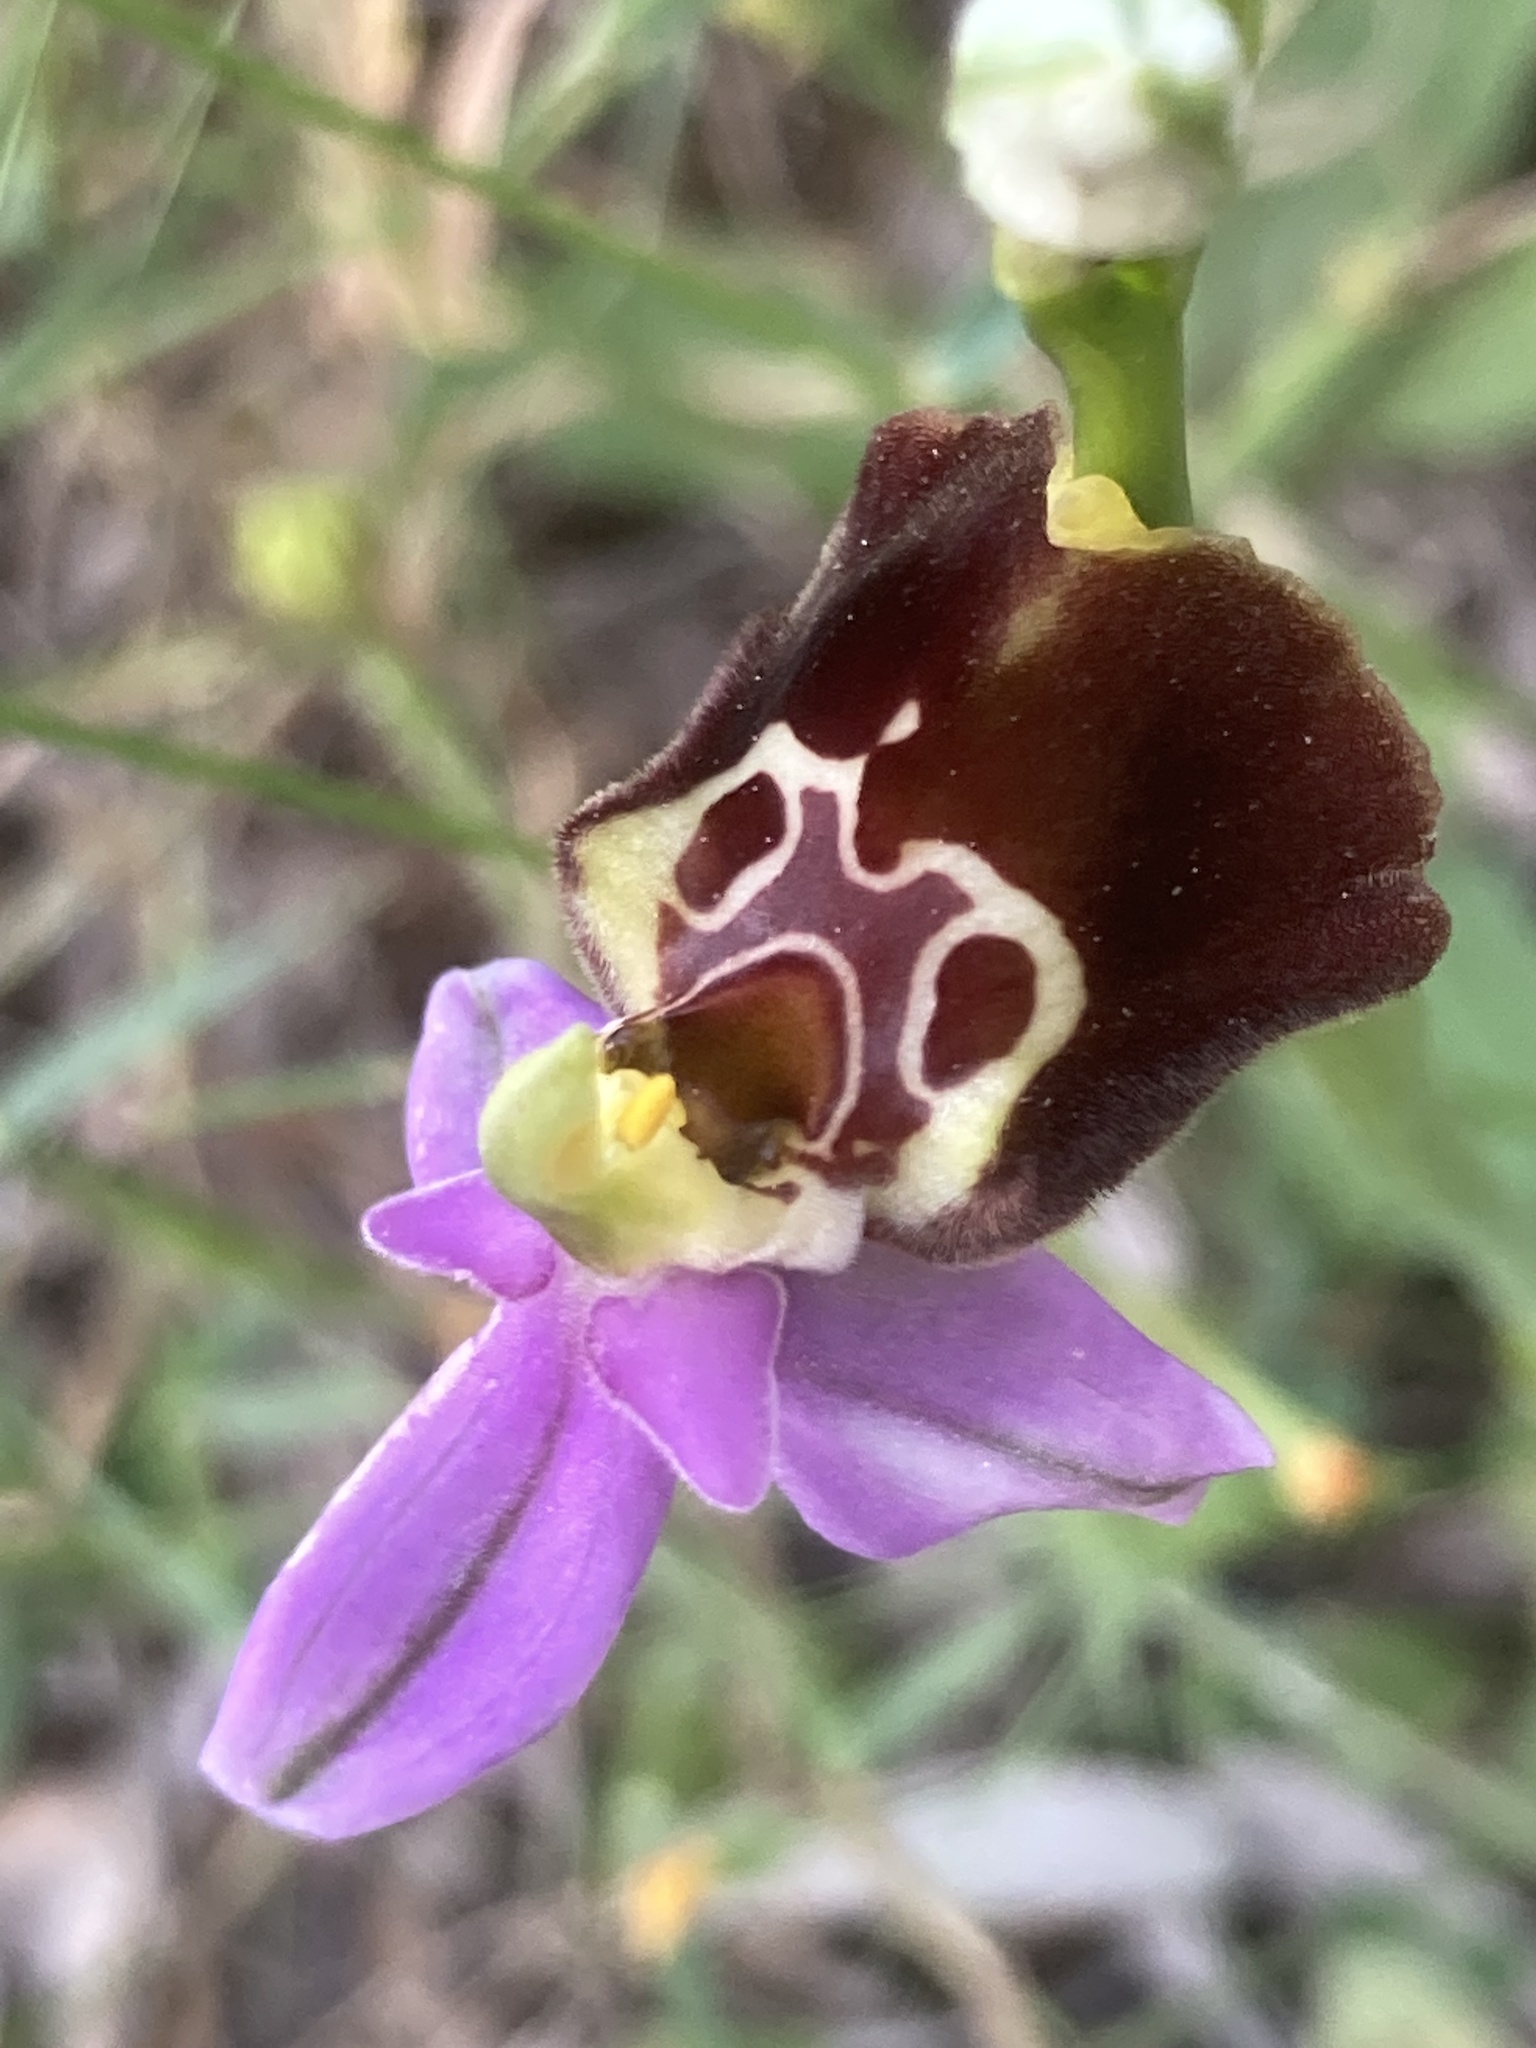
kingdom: Plantae
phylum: Tracheophyta
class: Liliopsida
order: Asparagales
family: Orchidaceae
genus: Ophrys
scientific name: Ophrys holosericea
